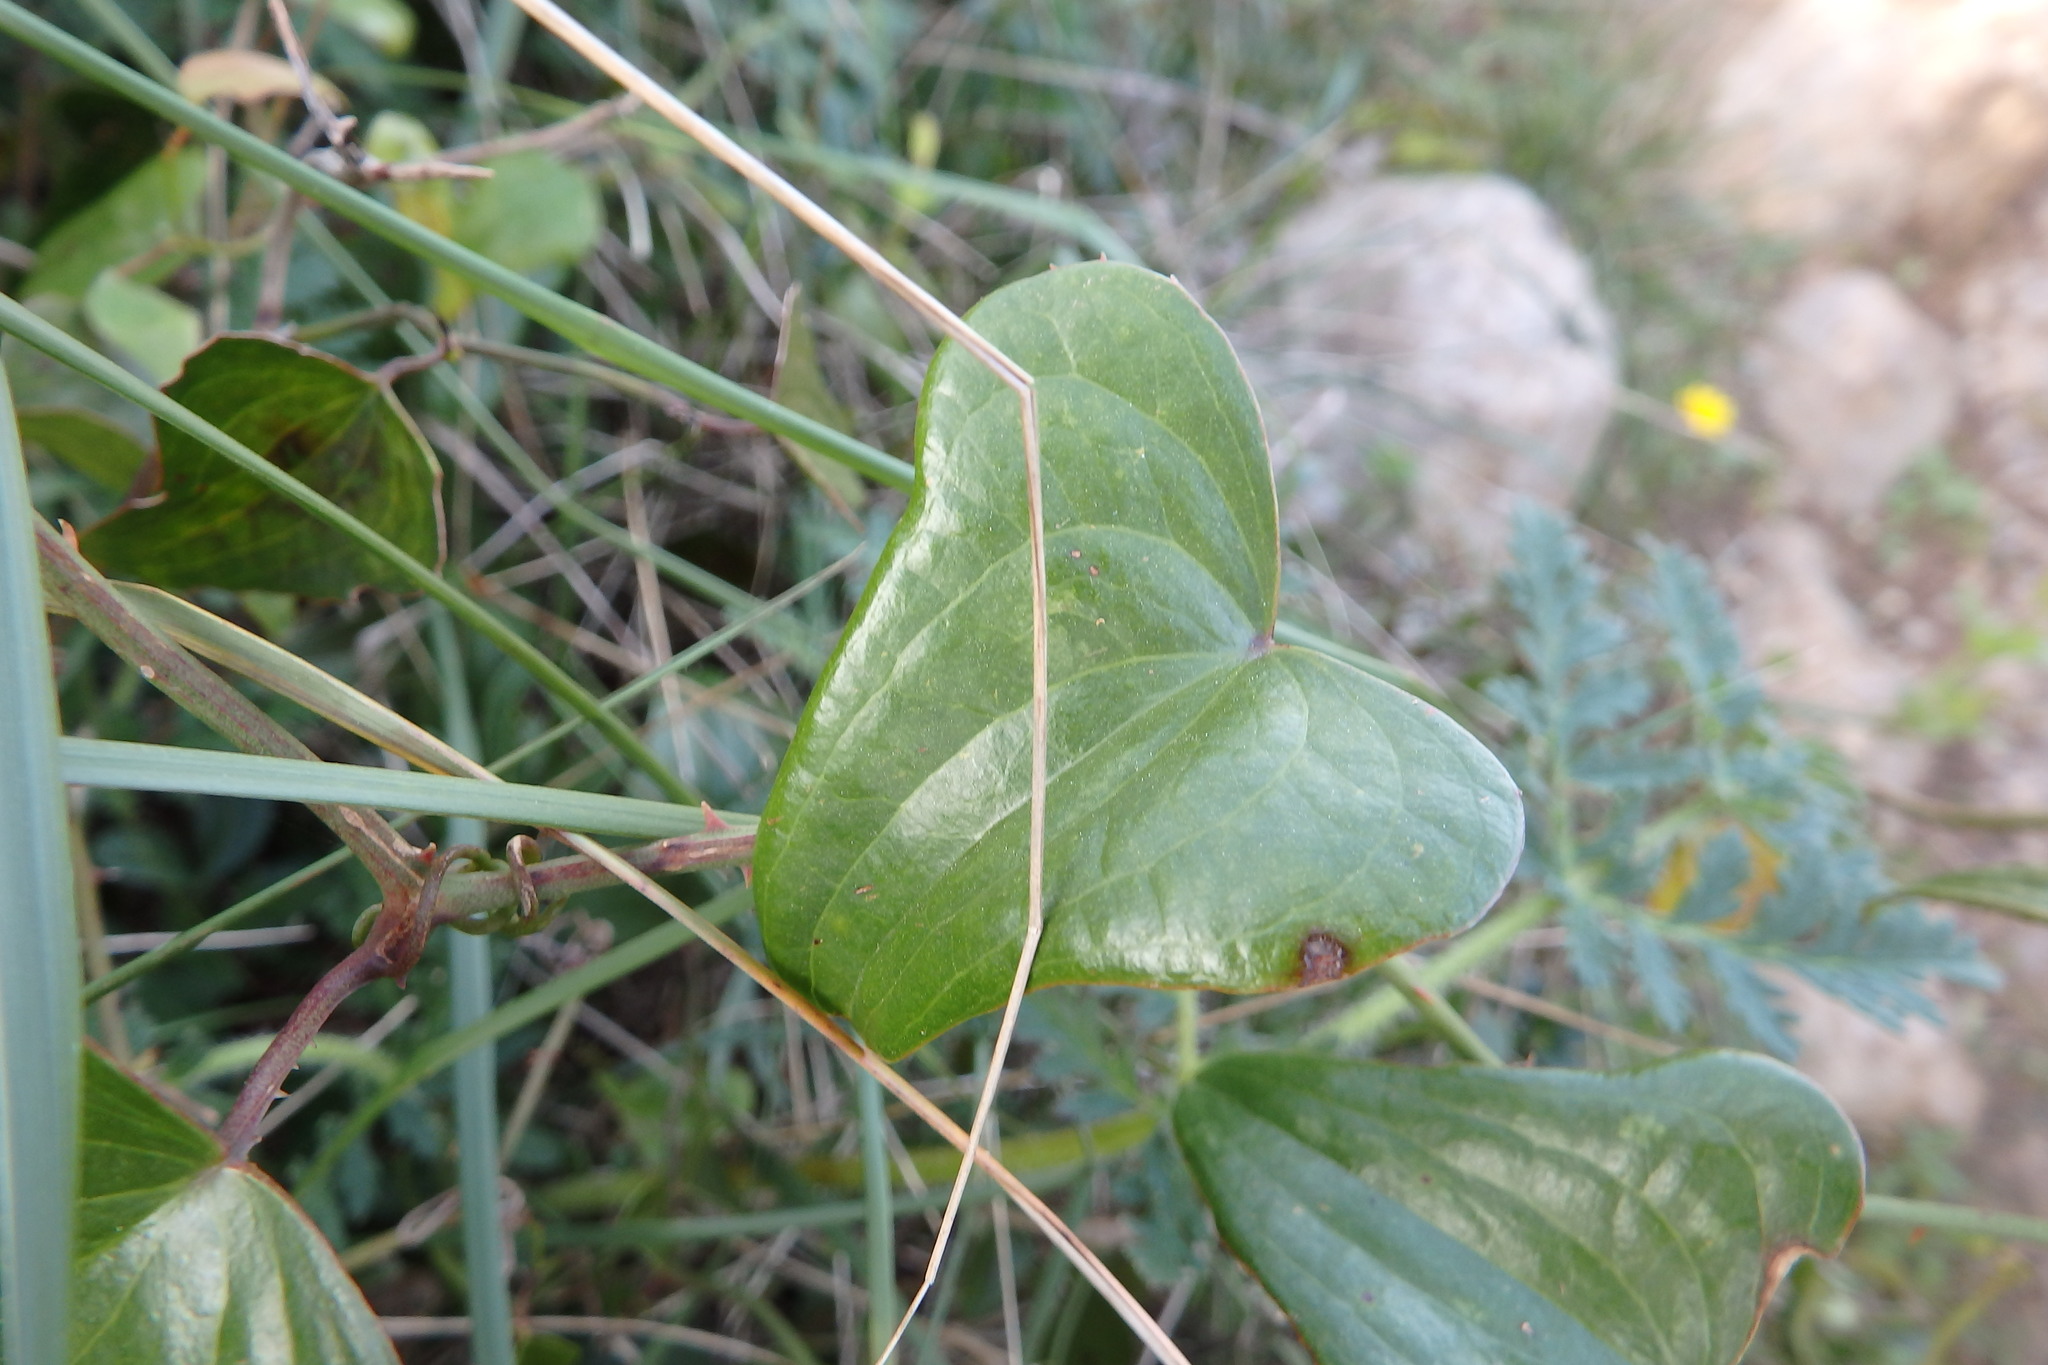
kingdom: Plantae
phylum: Tracheophyta
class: Liliopsida
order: Liliales
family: Smilacaceae
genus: Smilax
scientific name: Smilax aspera
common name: Common smilax
